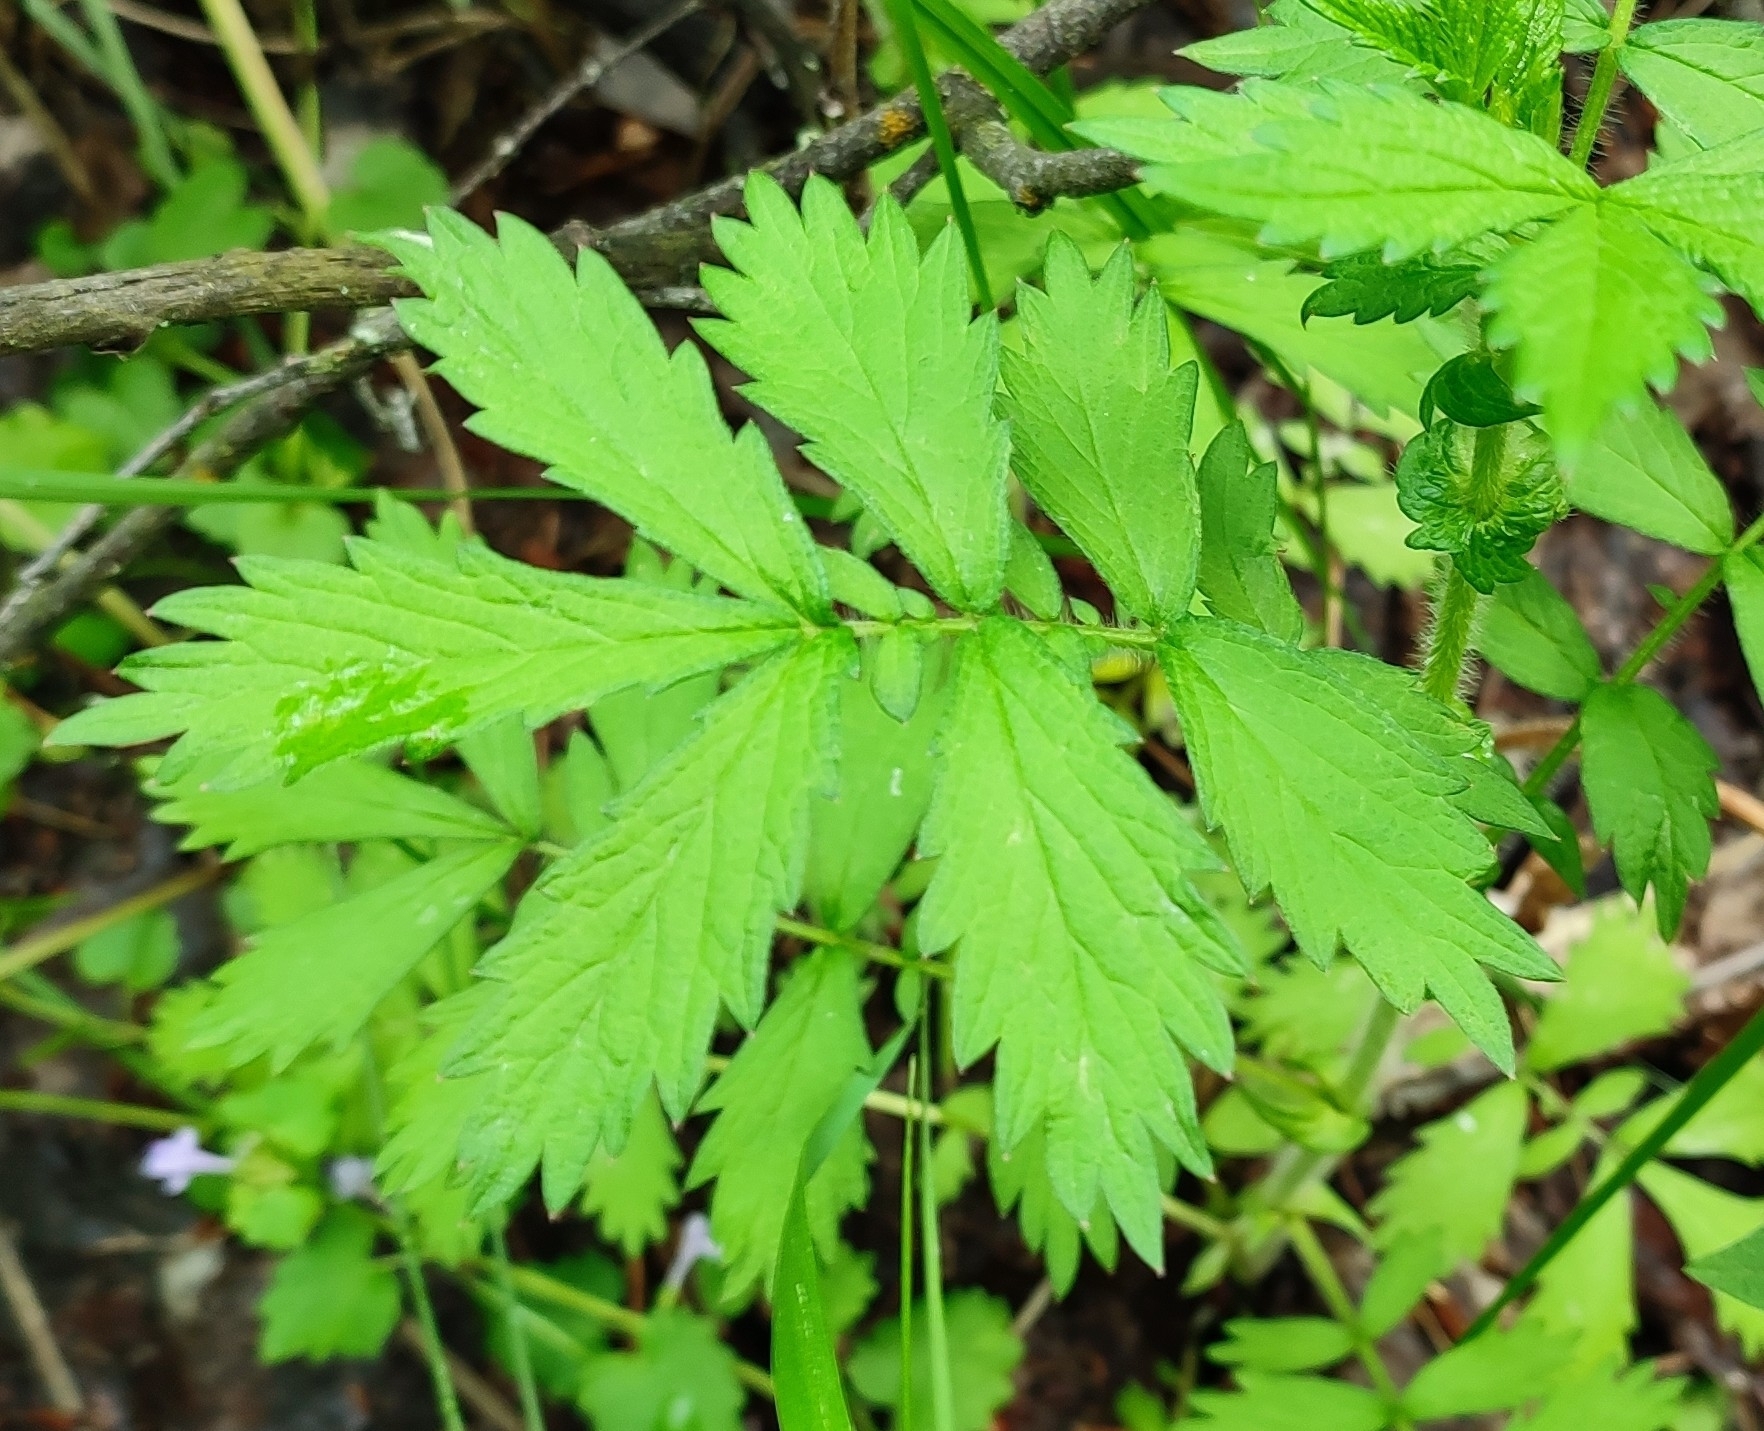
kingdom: Plantae
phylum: Tracheophyta
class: Magnoliopsida
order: Rosales
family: Rosaceae
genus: Agrimonia
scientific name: Agrimonia pilosa
